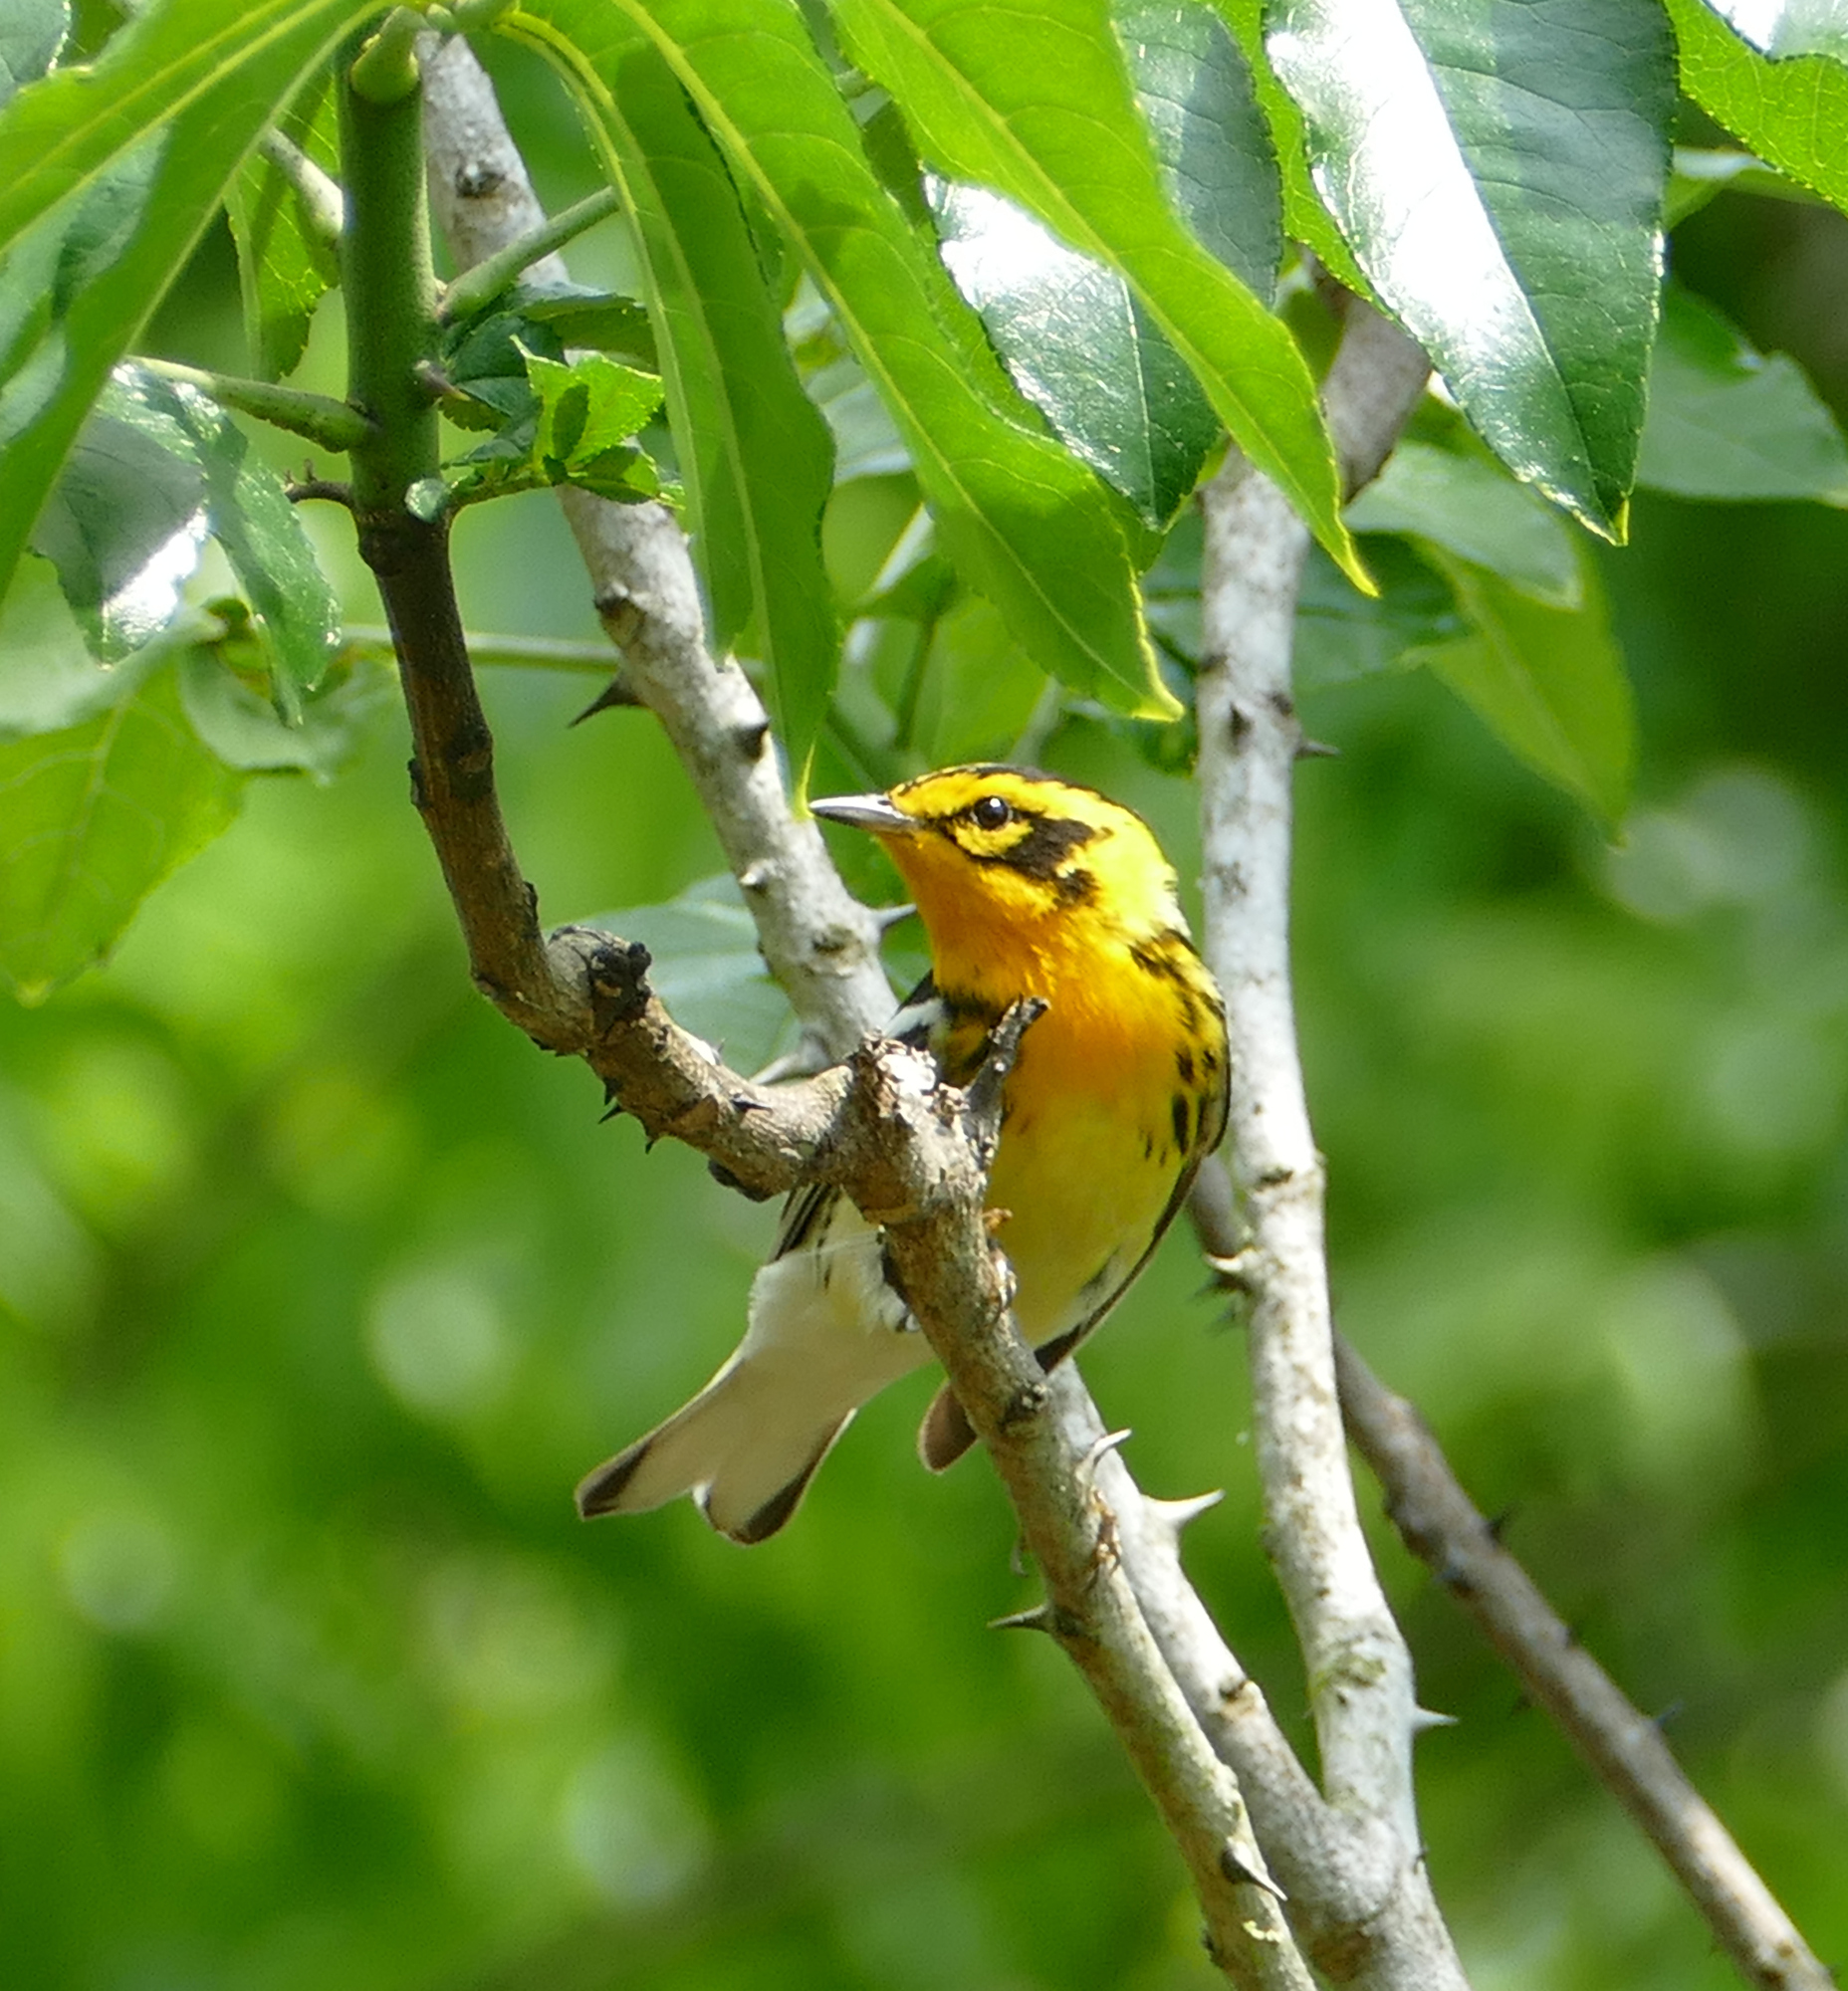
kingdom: Animalia
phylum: Chordata
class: Aves
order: Passeriformes
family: Parulidae
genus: Setophaga
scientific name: Setophaga fusca
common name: Blackburnian warbler
